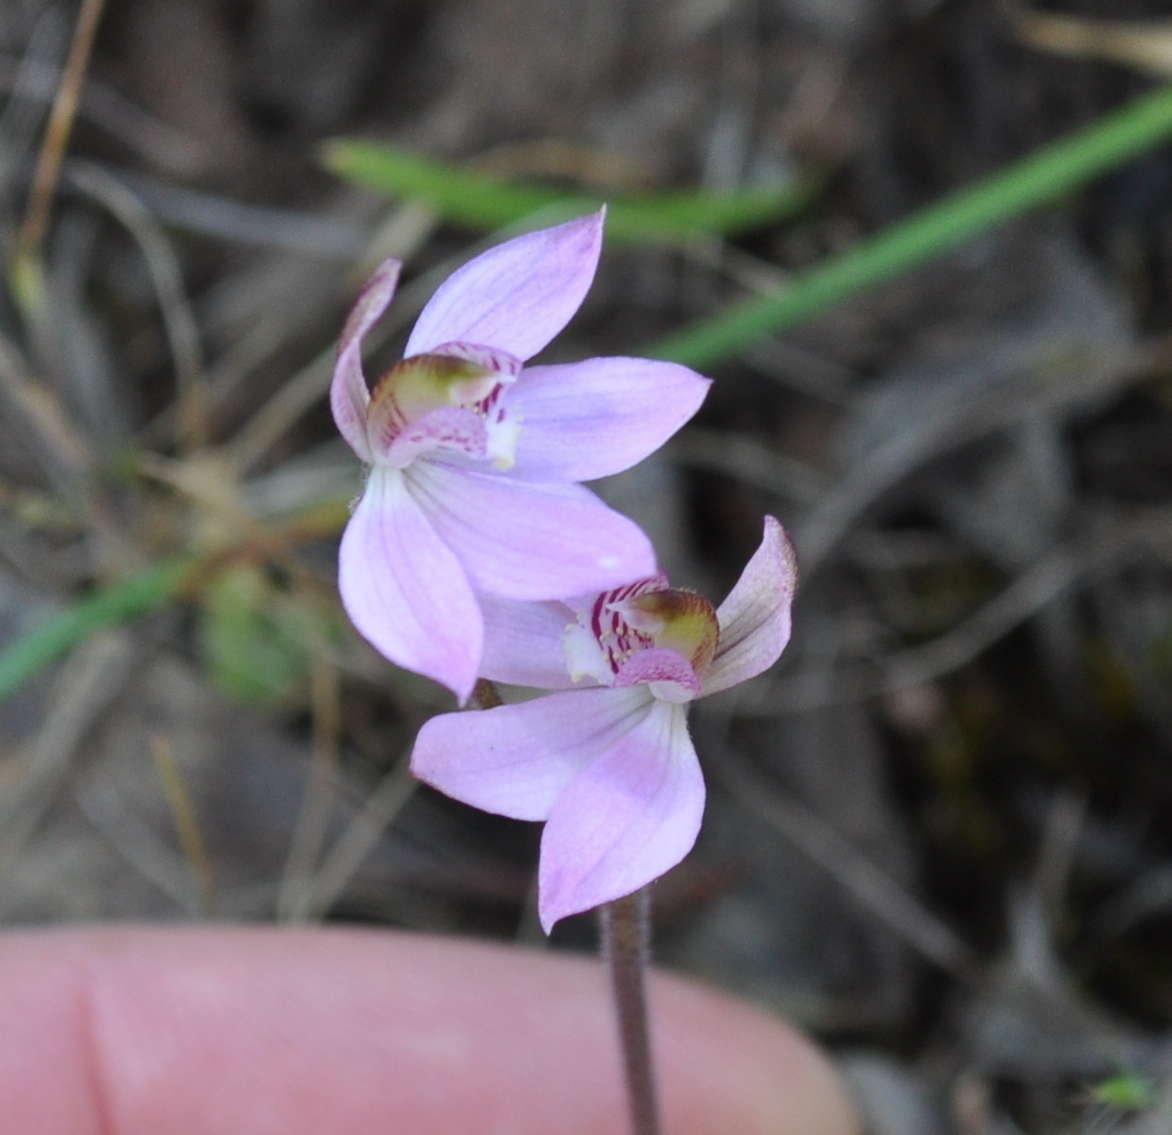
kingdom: Plantae
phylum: Tracheophyta
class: Liliopsida
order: Asparagales
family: Orchidaceae
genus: Caladenia
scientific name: Caladenia carnea
